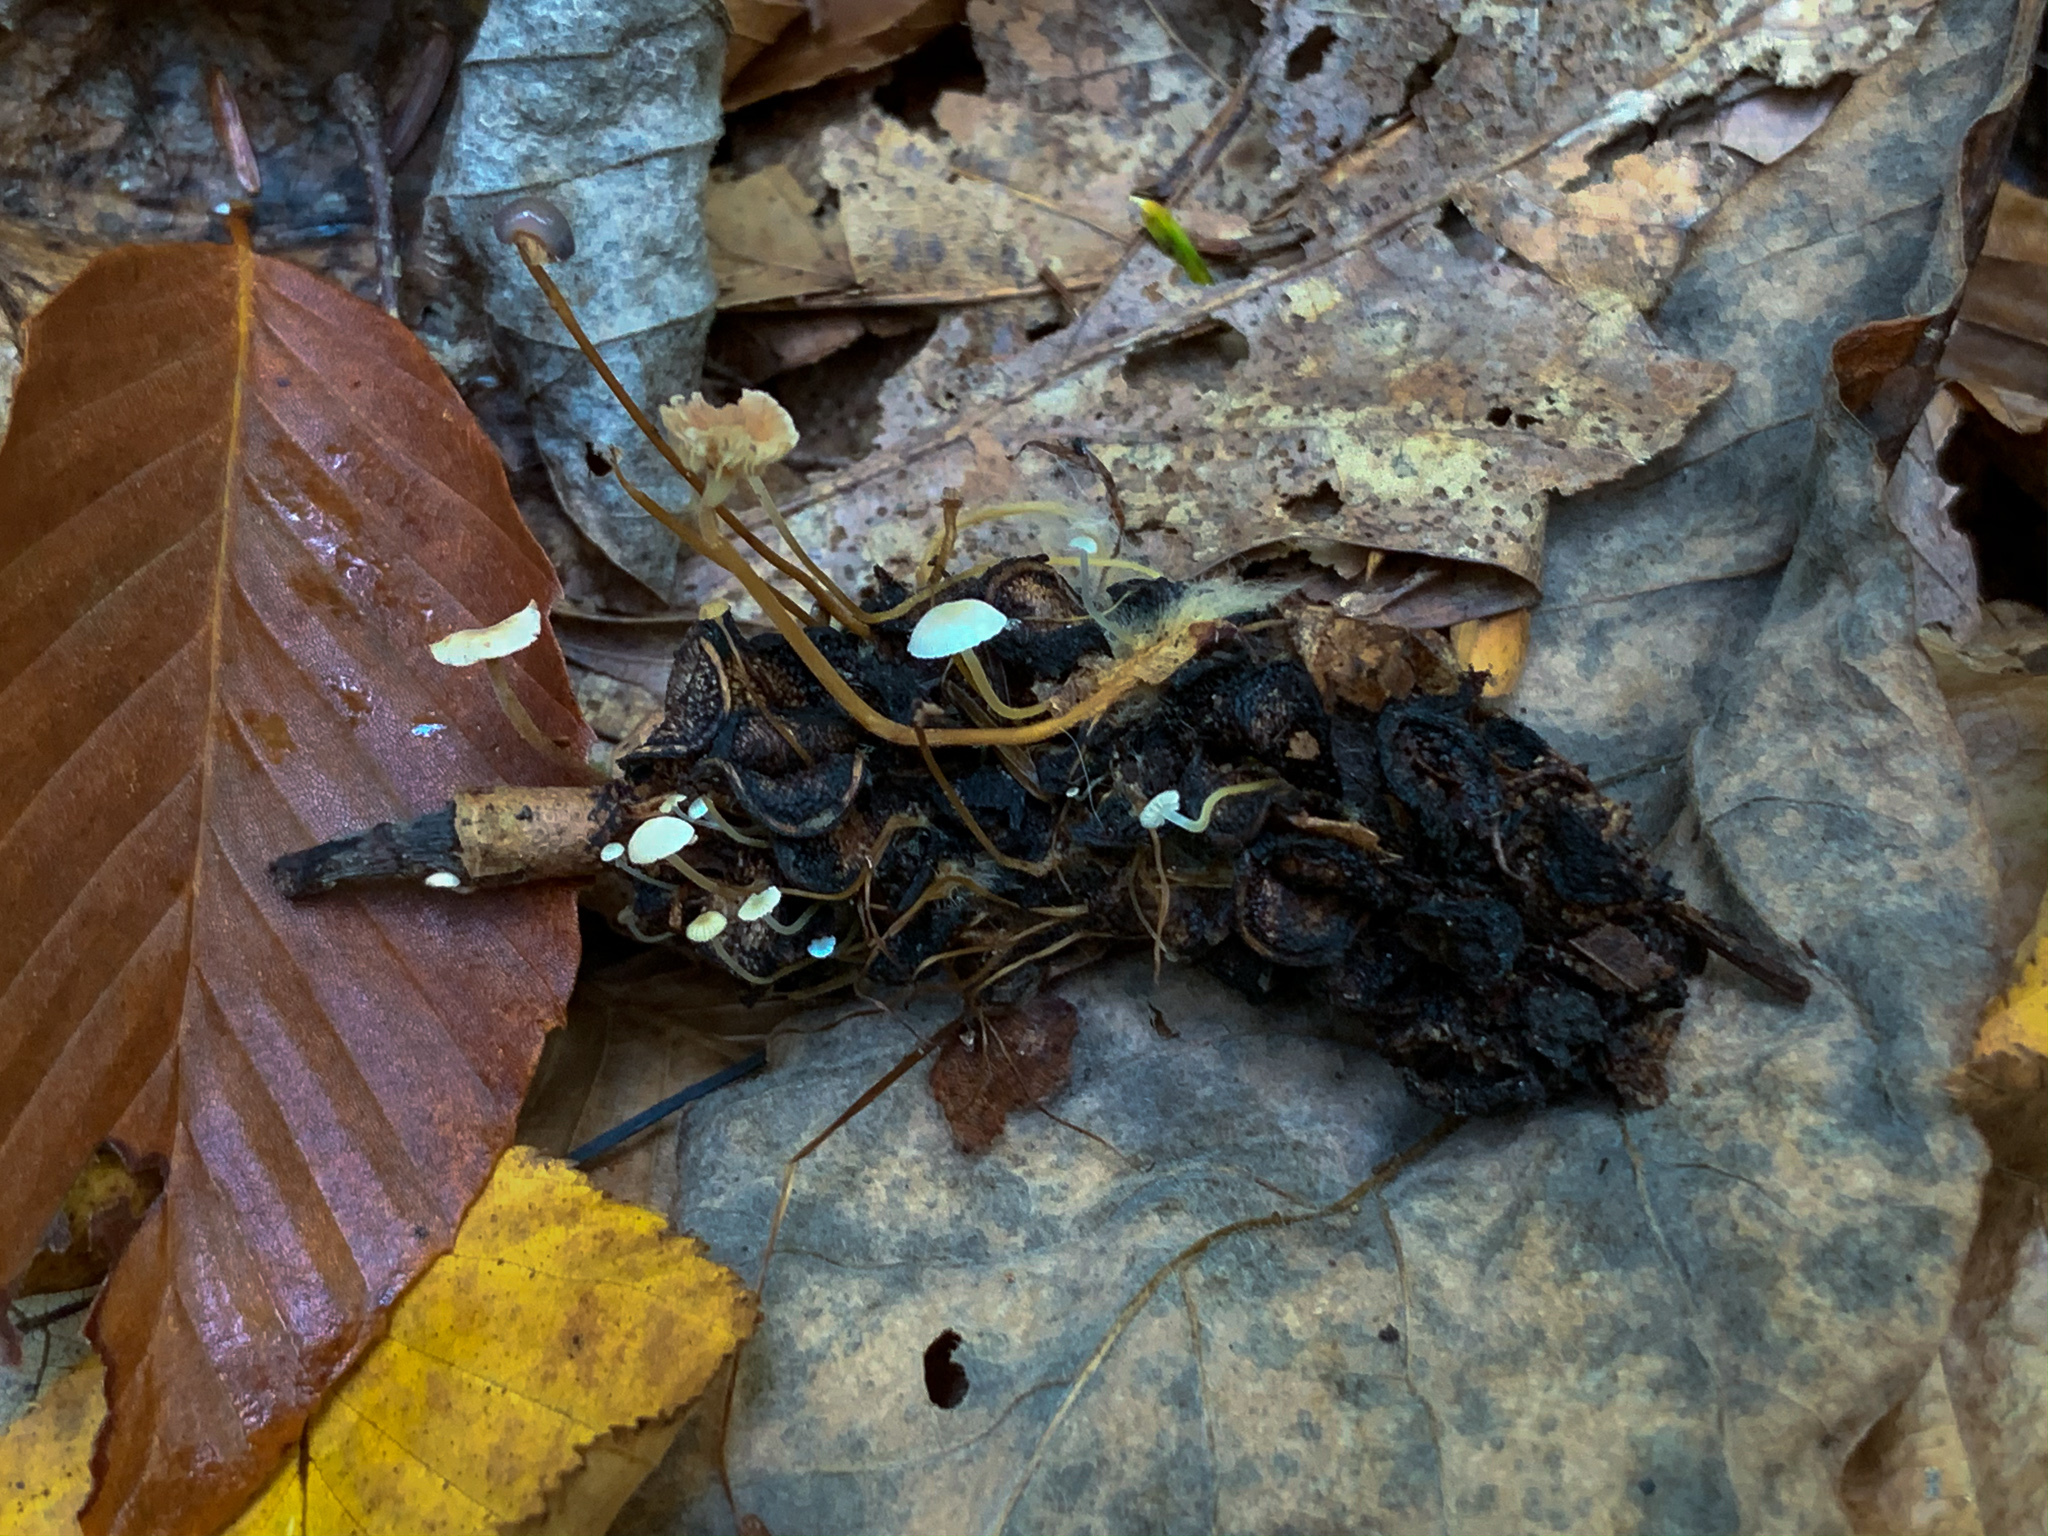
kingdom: Fungi
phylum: Basidiomycota
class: Agaricomycetes
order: Agaricales
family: Physalacriaceae
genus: Strobilurus
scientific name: Strobilurus conigenoides
